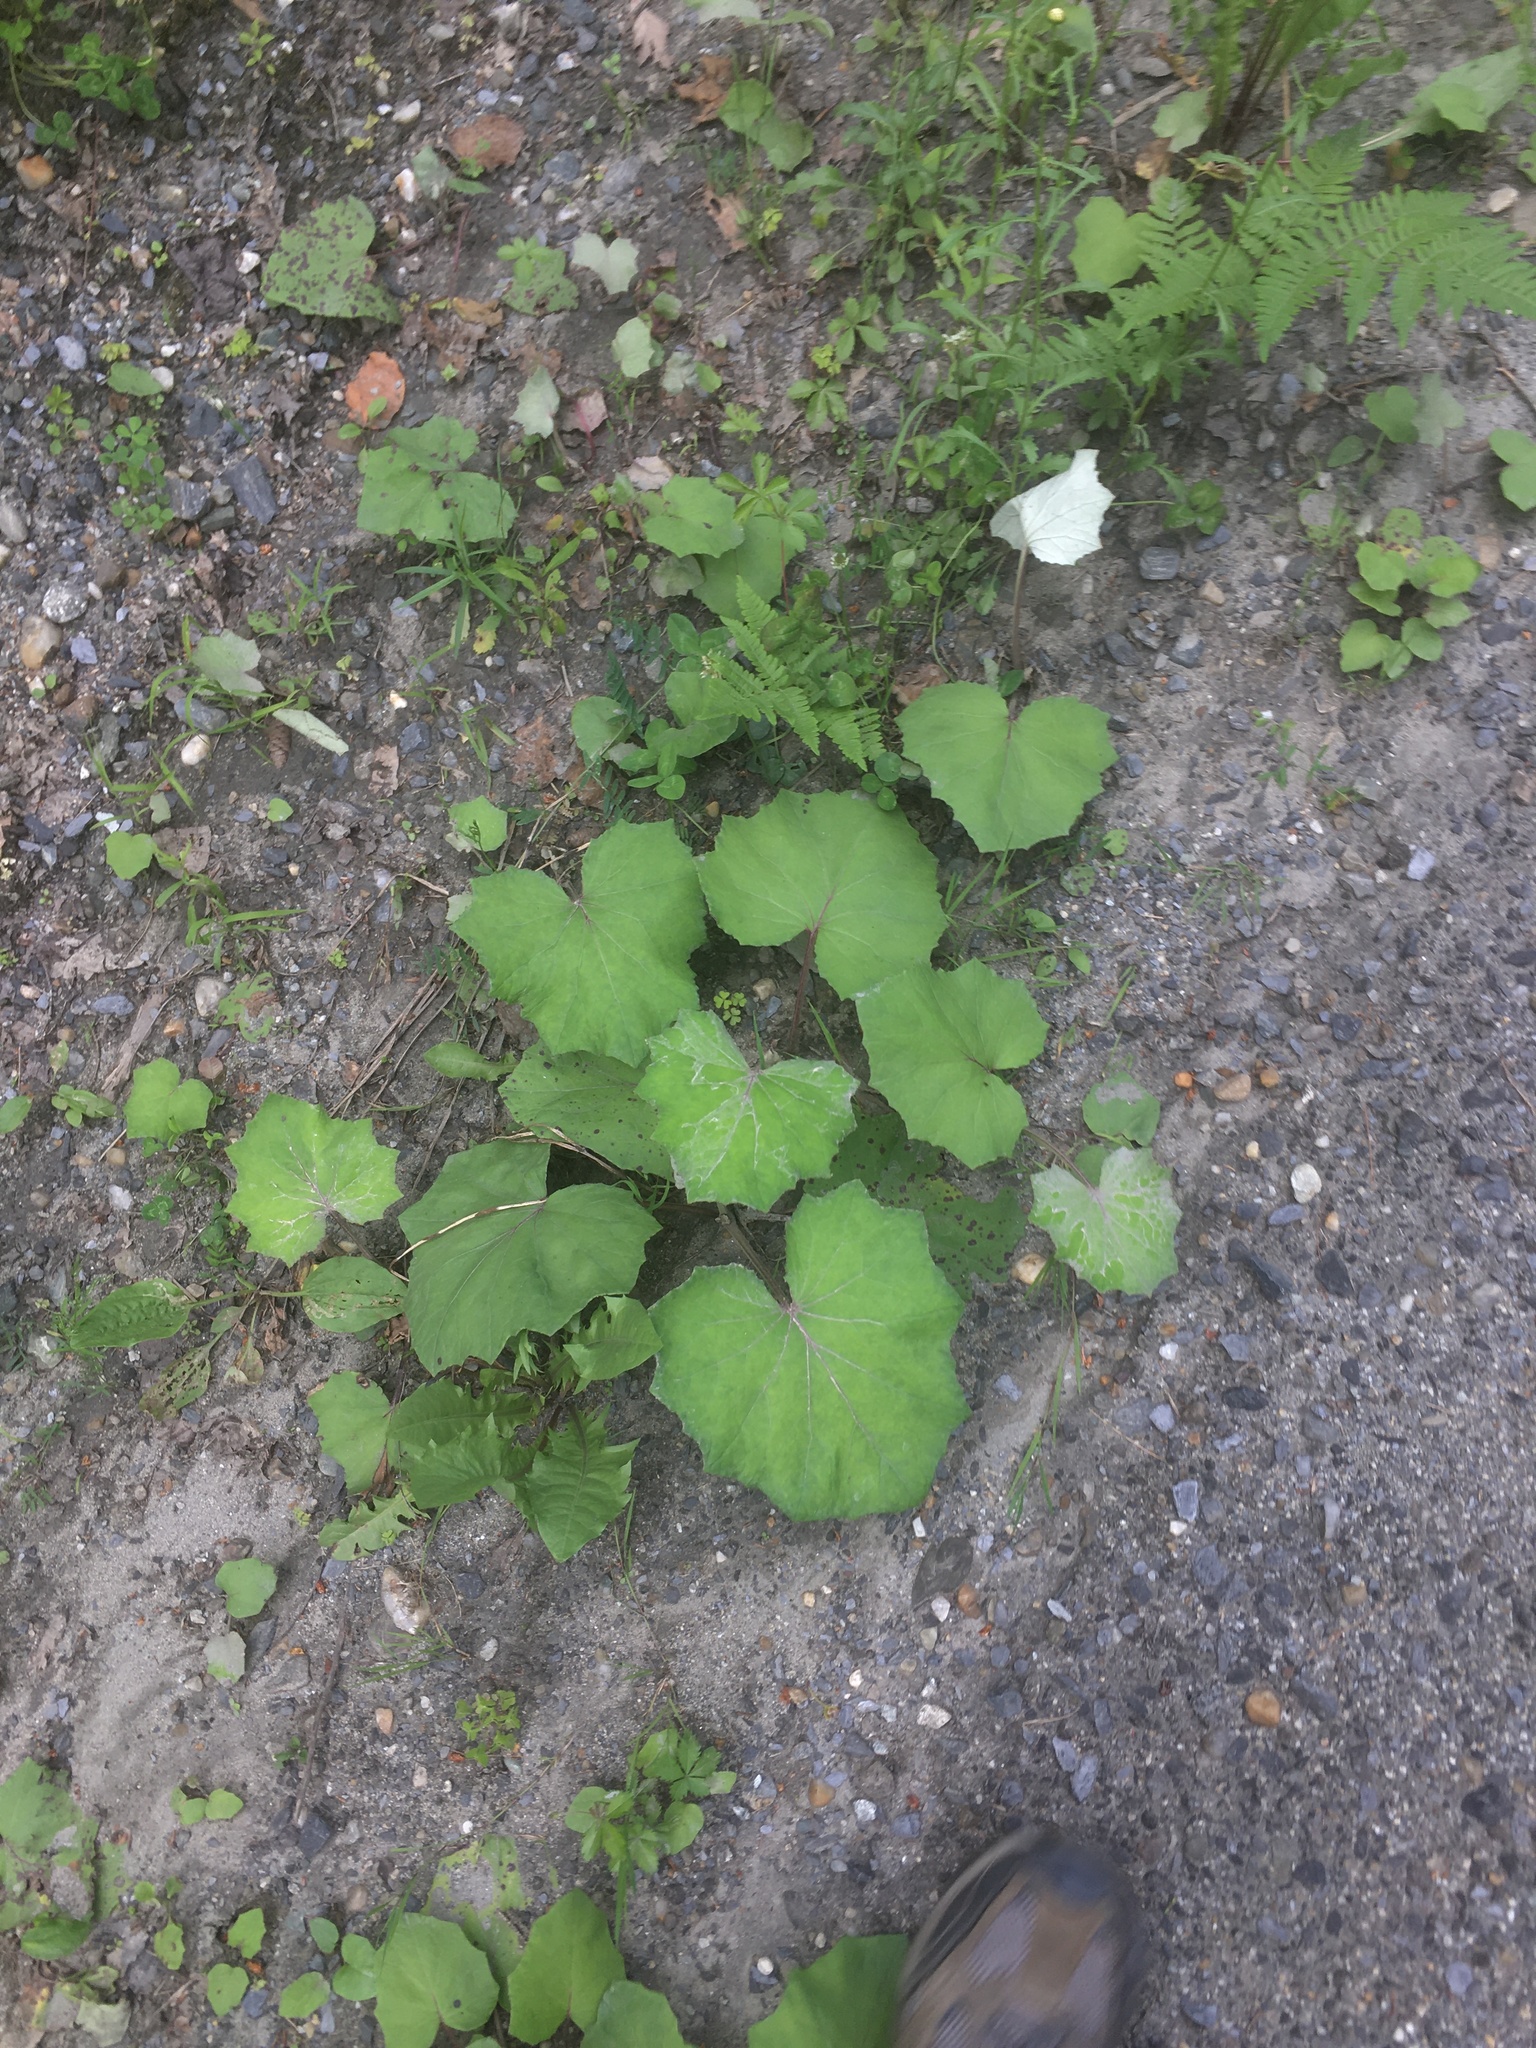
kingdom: Plantae
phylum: Tracheophyta
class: Magnoliopsida
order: Asterales
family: Asteraceae
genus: Tussilago
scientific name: Tussilago farfara
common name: Coltsfoot
